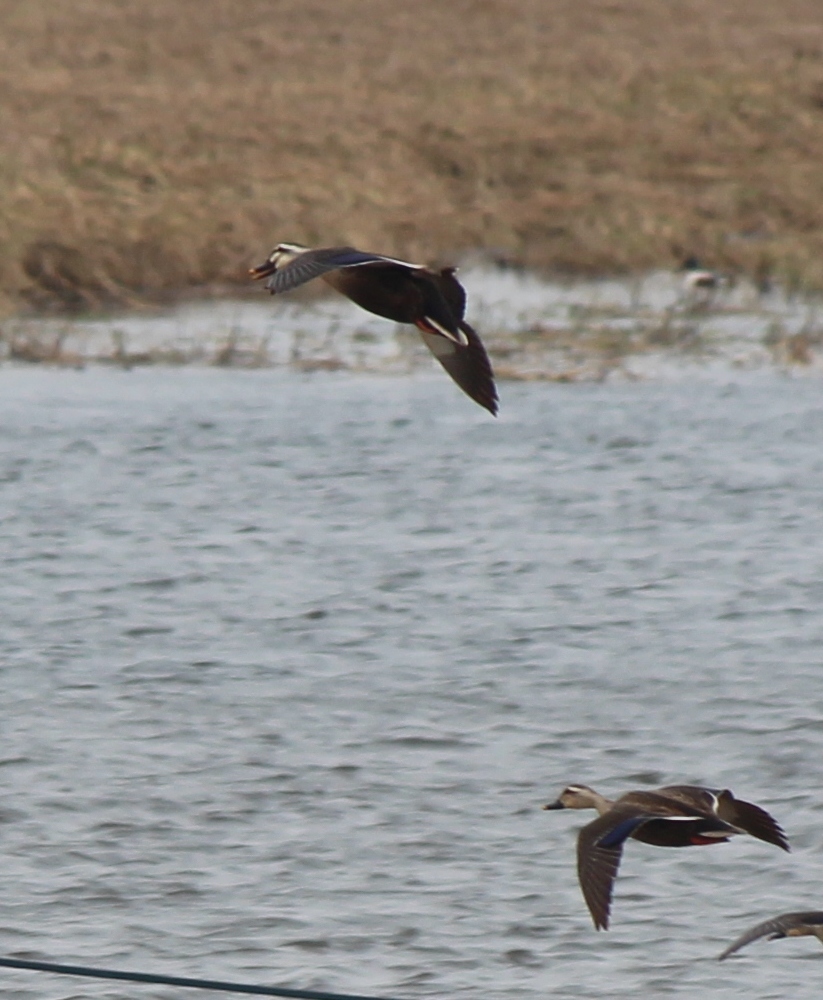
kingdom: Animalia
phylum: Chordata
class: Aves
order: Anseriformes
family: Anatidae
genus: Anas
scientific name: Anas zonorhyncha
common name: Eastern spot-billed duck
